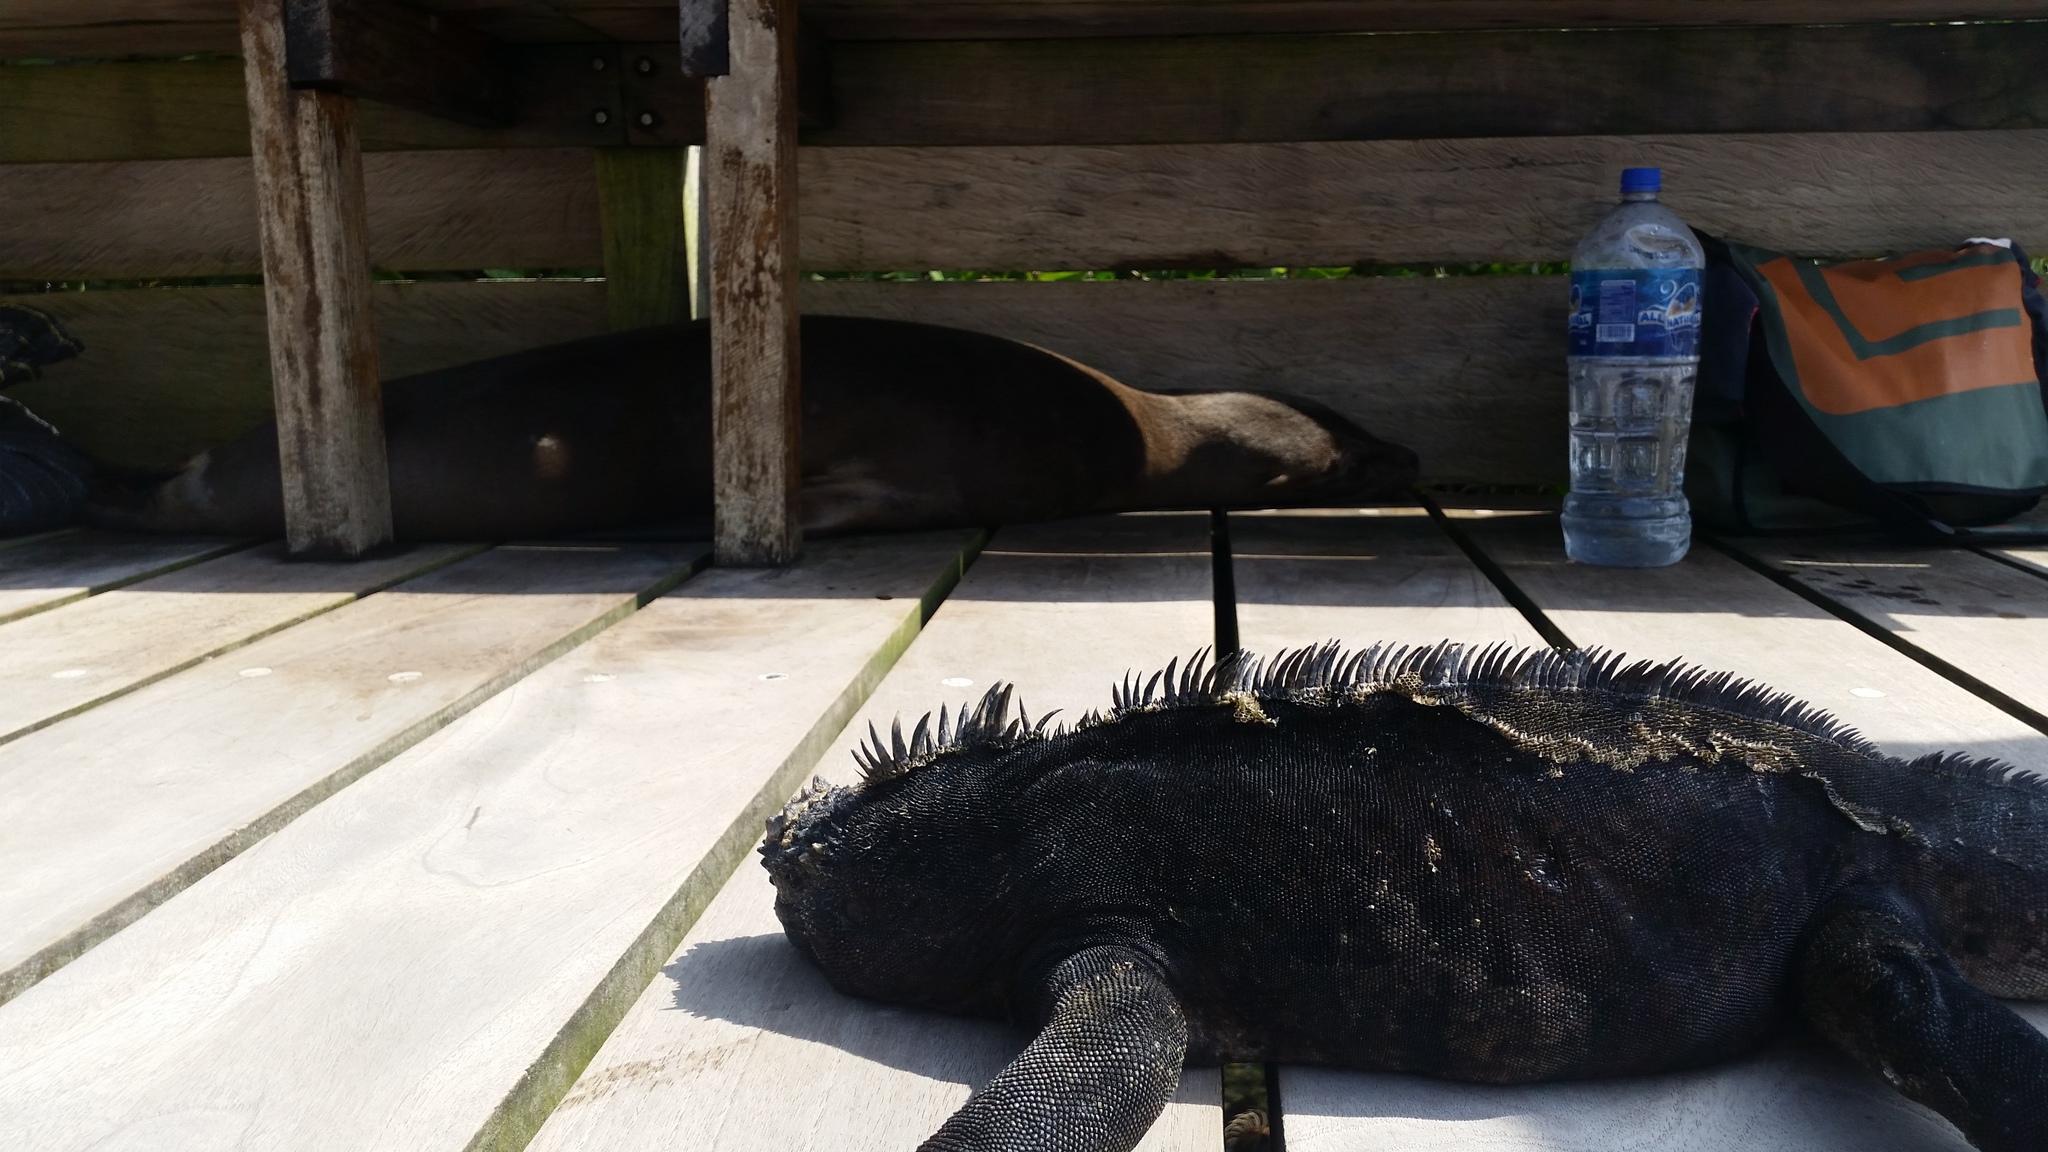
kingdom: Animalia
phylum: Chordata
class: Squamata
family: Iguanidae
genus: Amblyrhynchus
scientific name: Amblyrhynchus cristatus
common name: Marine iguana
